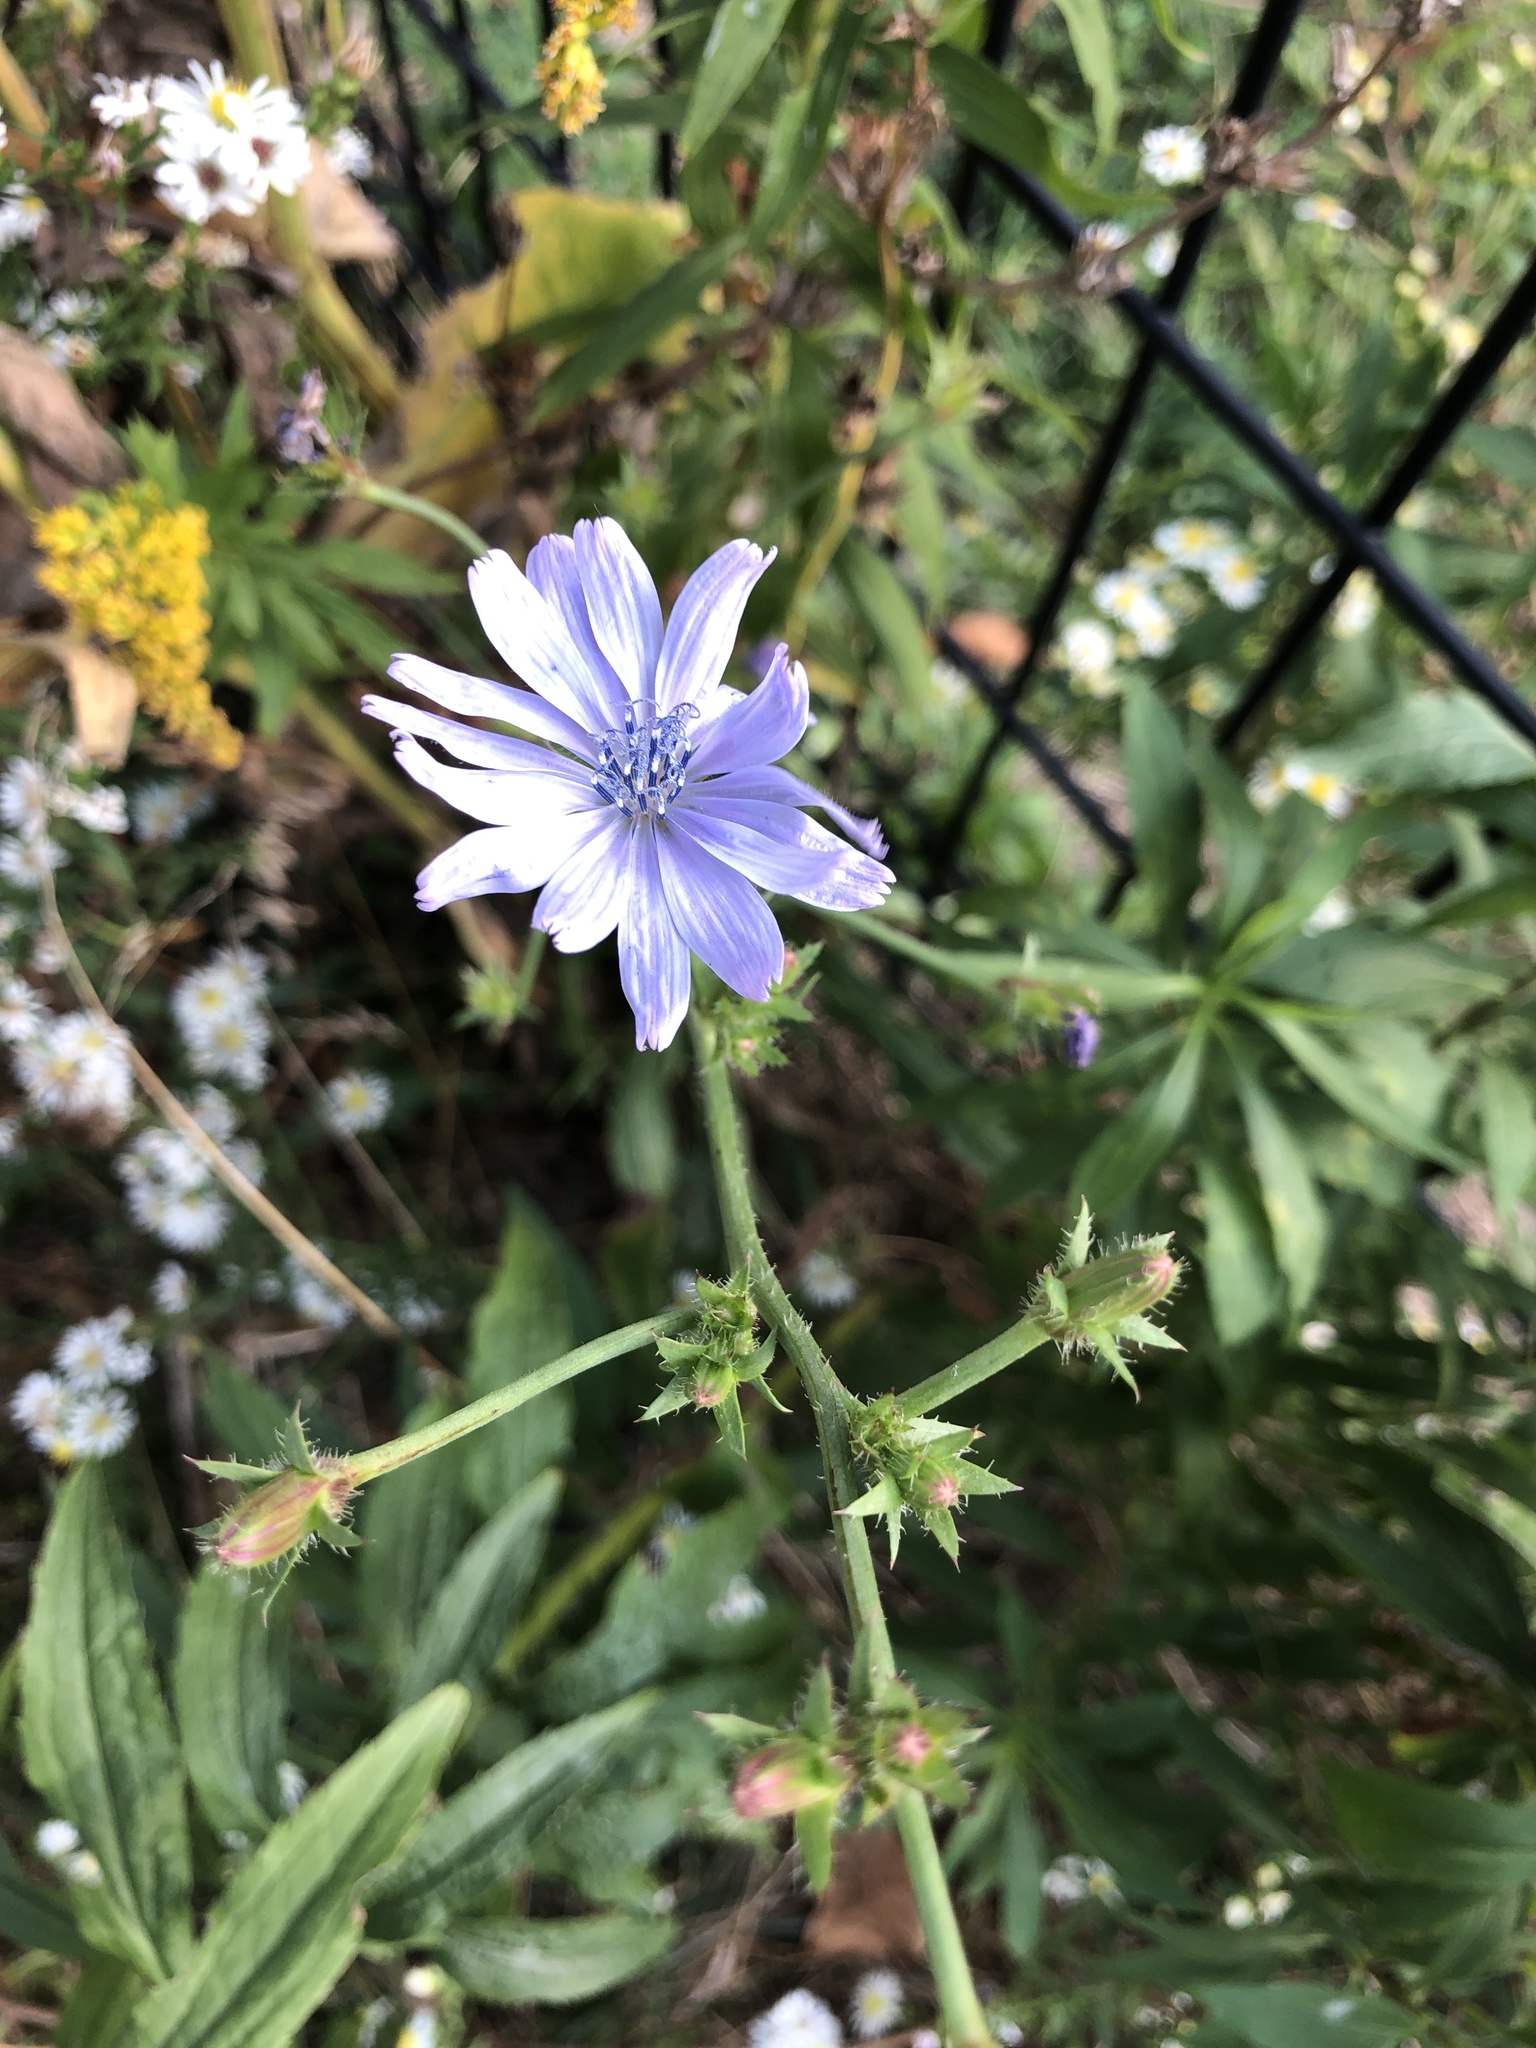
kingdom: Plantae
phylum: Tracheophyta
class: Magnoliopsida
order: Asterales
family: Asteraceae
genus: Cichorium
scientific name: Cichorium intybus
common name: Chicory
